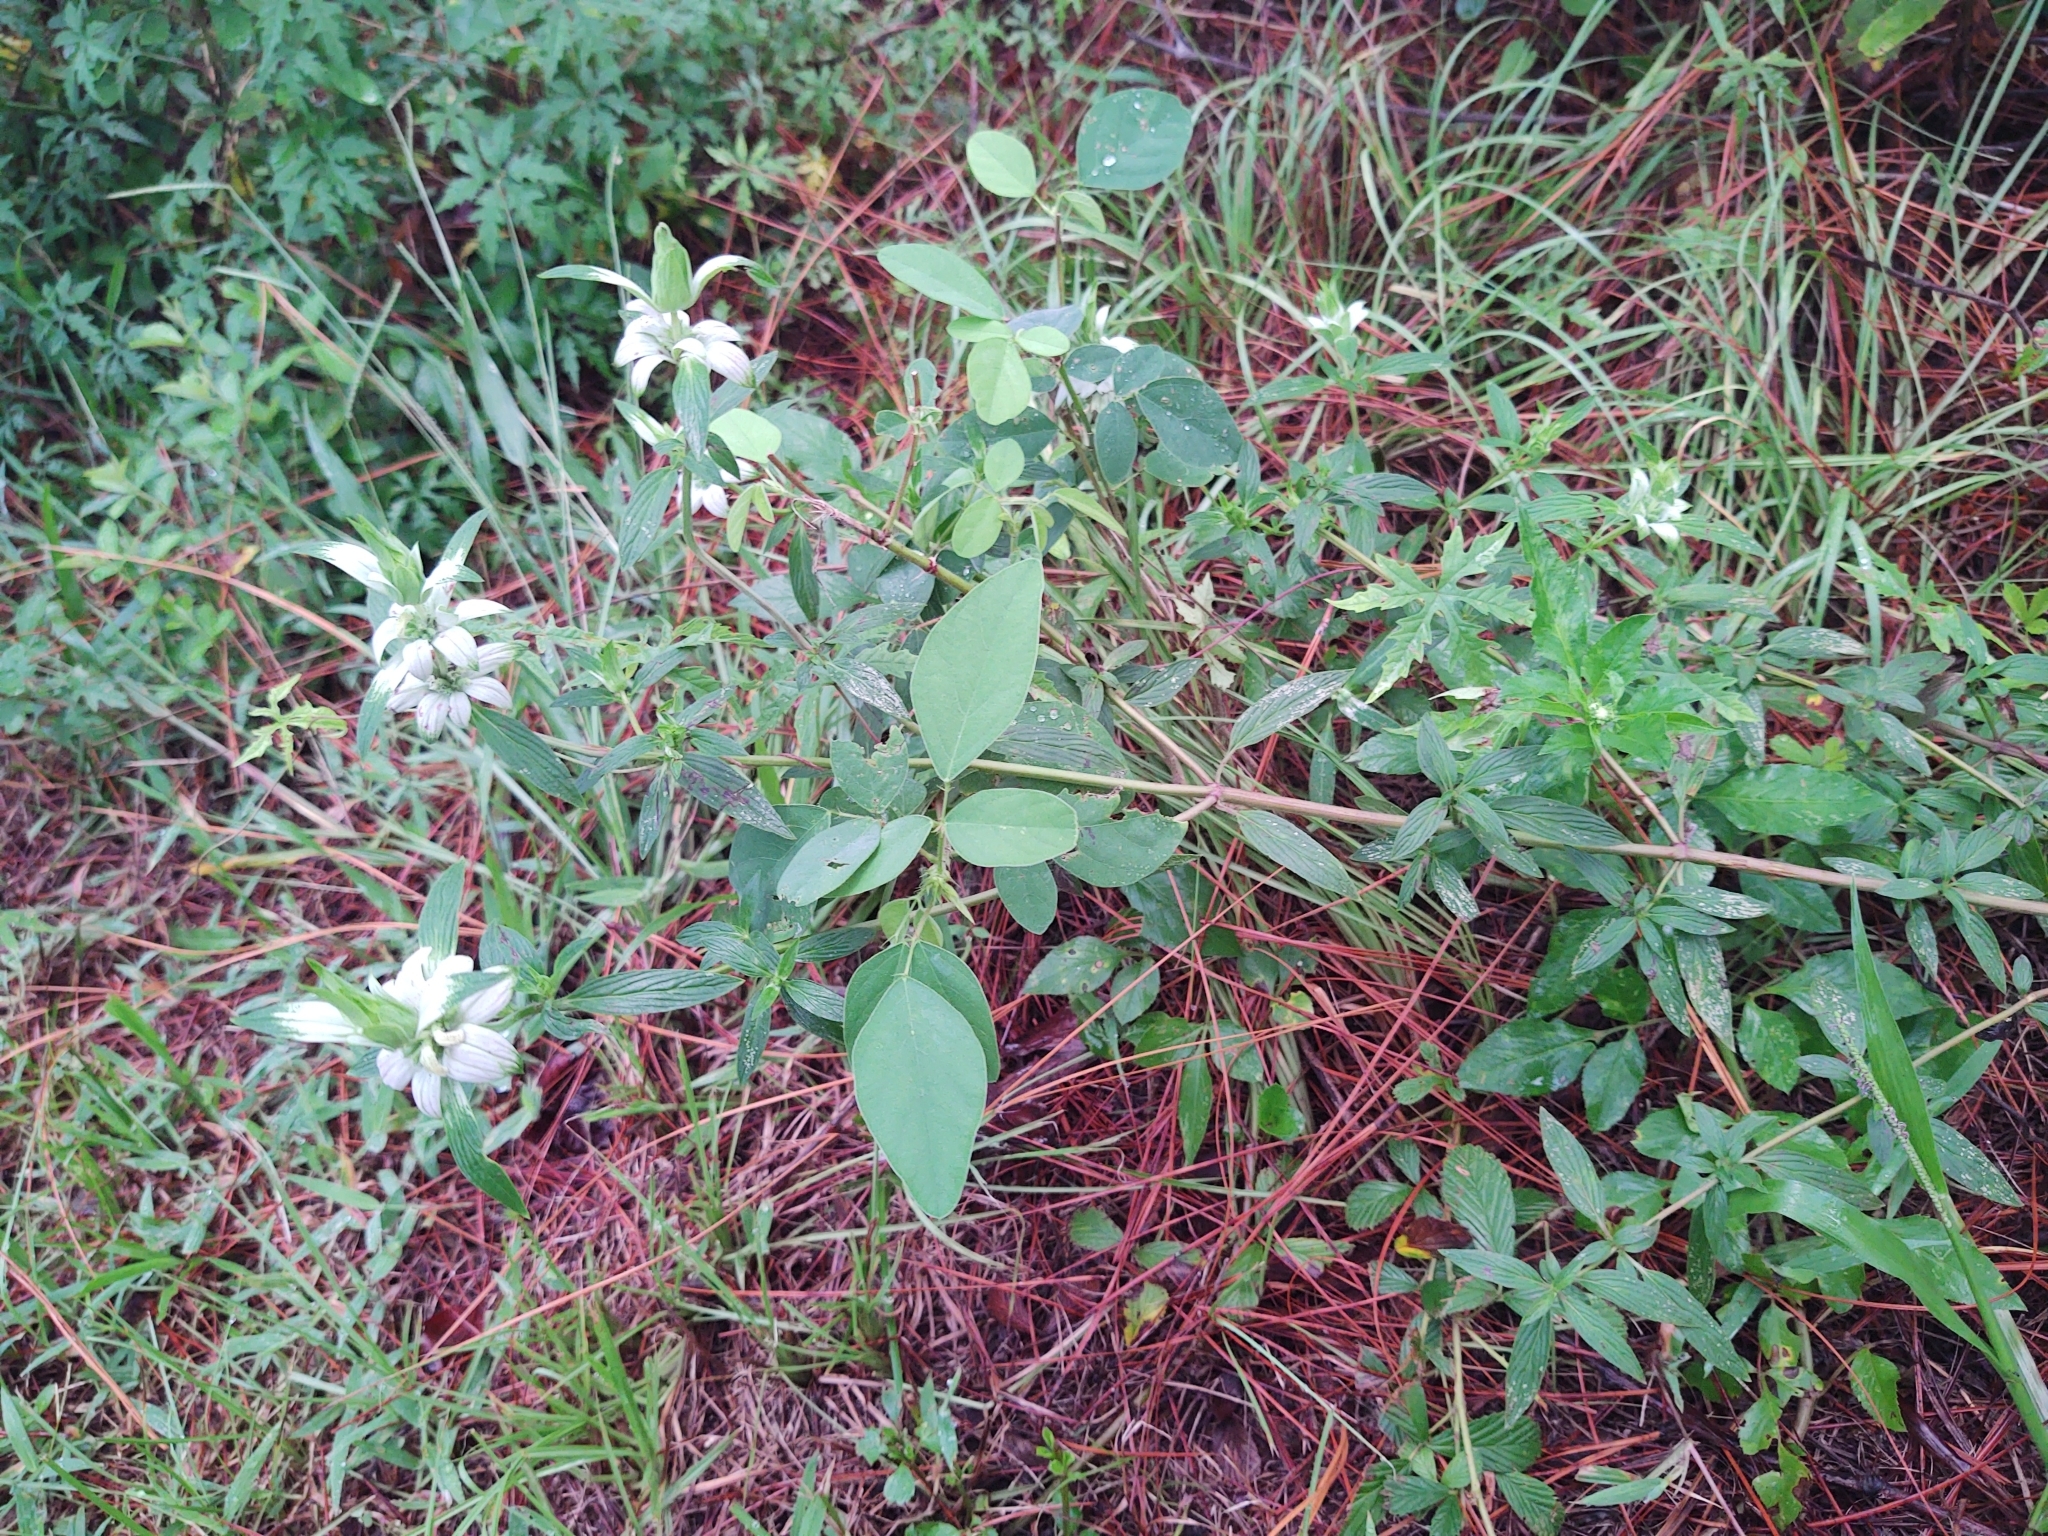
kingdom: Plantae
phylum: Tracheophyta
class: Magnoliopsida
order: Lamiales
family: Lamiaceae
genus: Monarda
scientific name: Monarda punctata
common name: Dotted monarda
